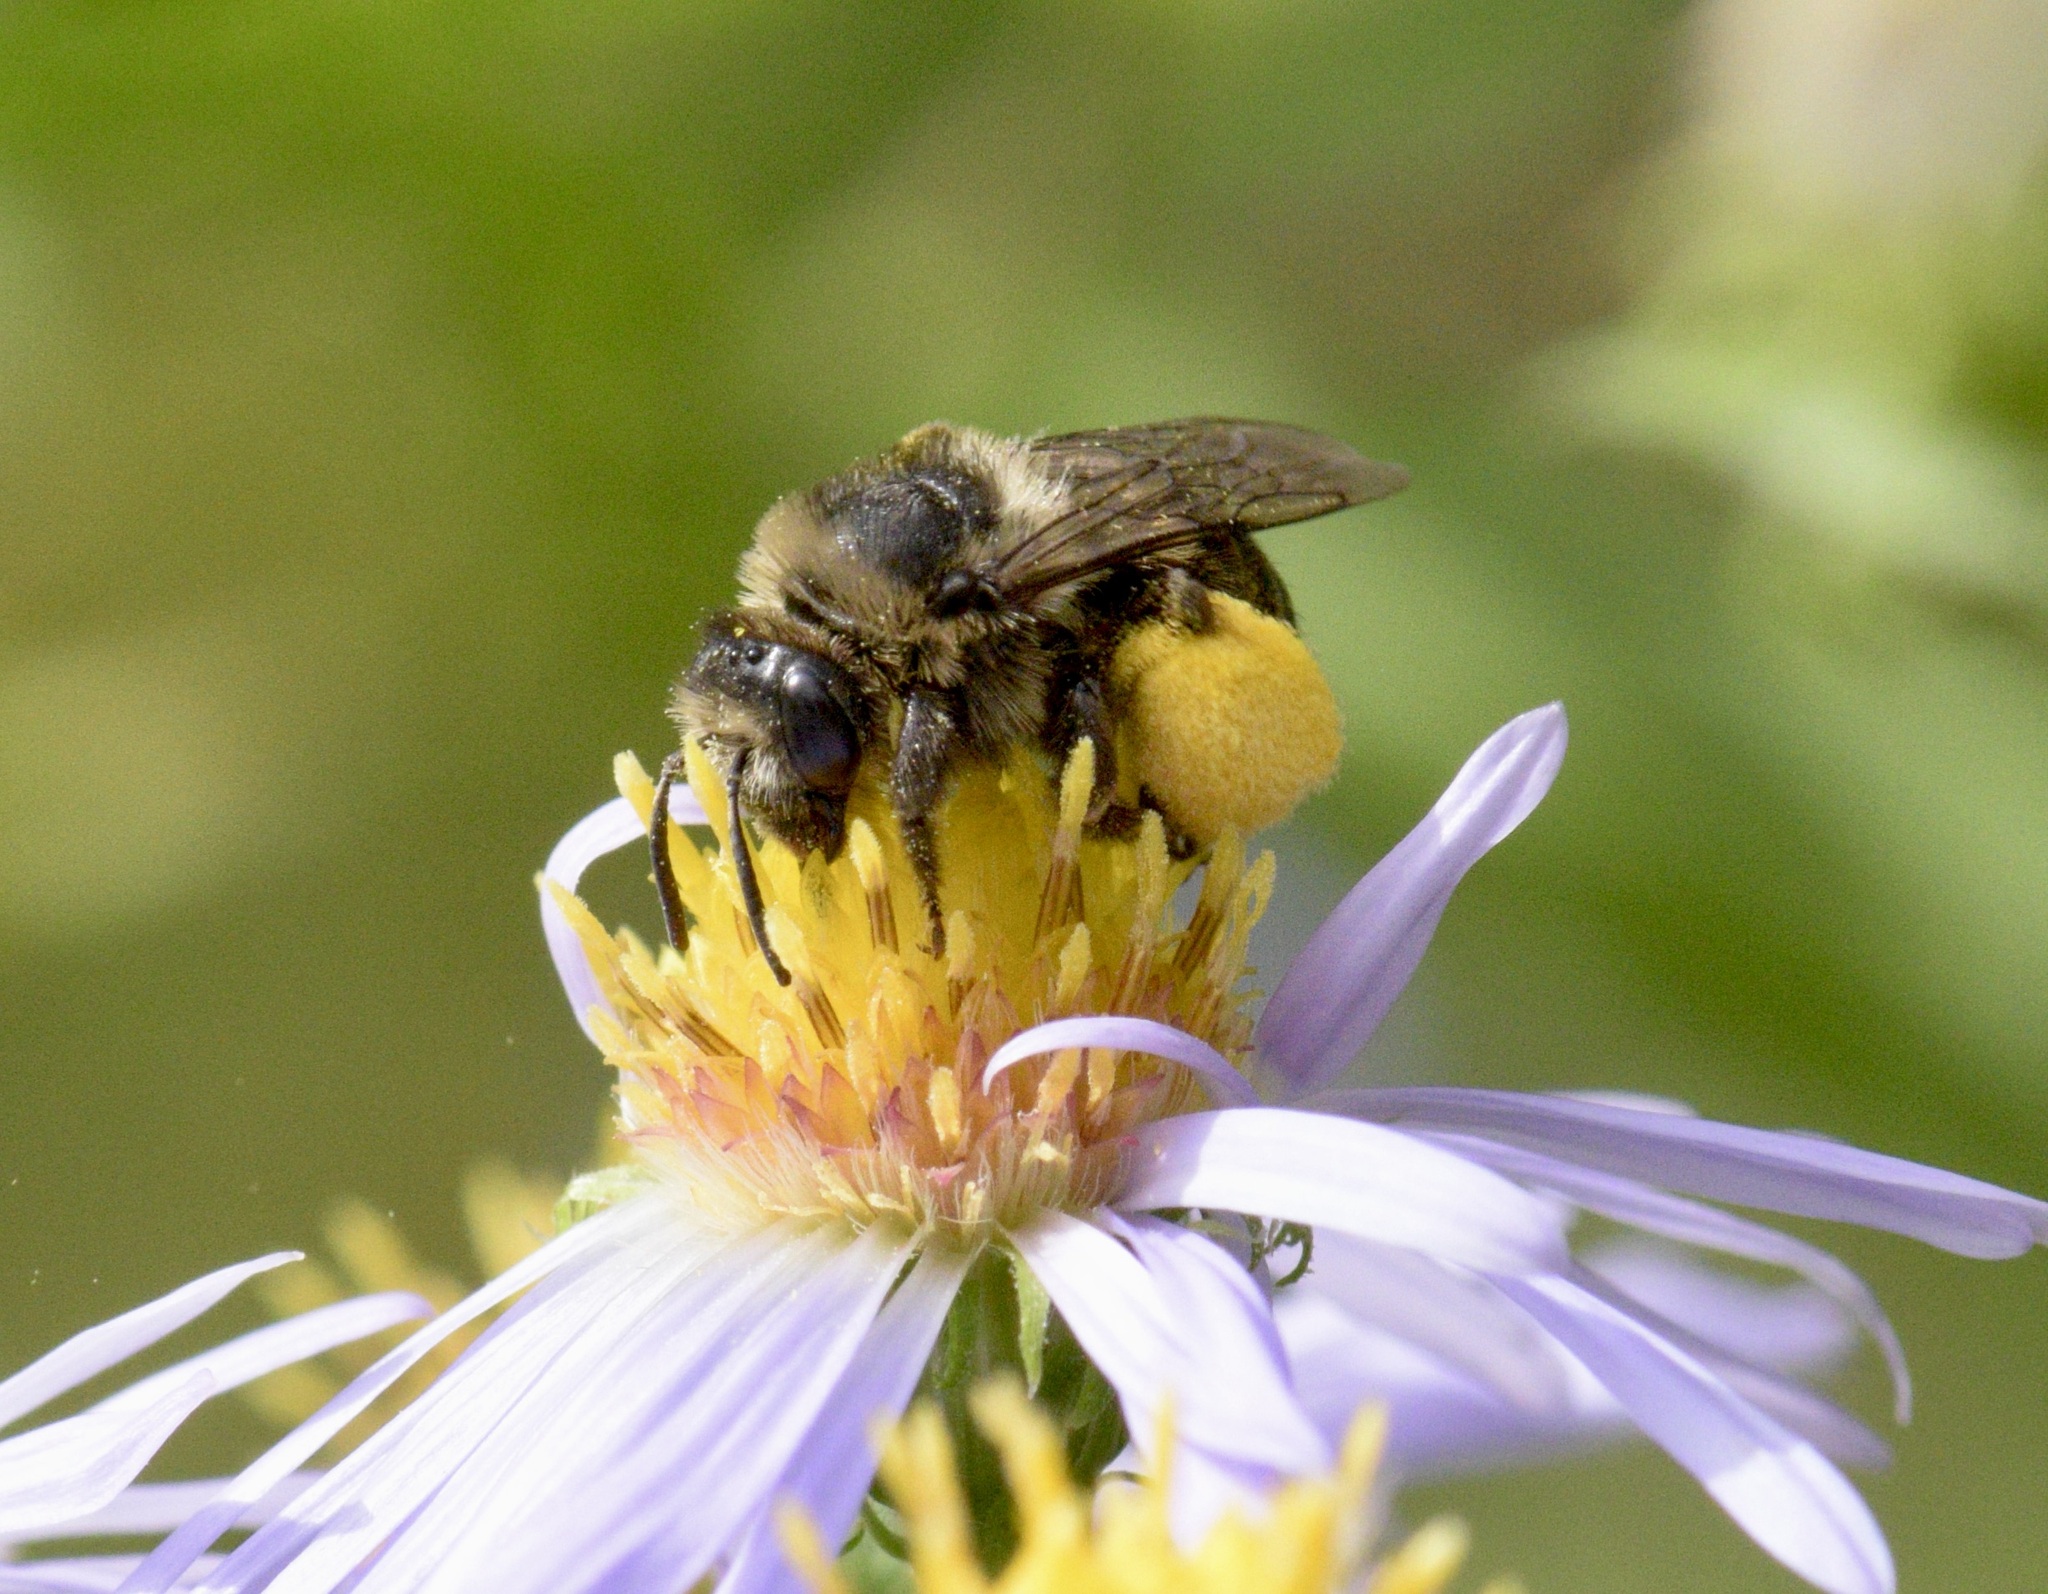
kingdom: Animalia
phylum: Arthropoda
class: Insecta
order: Hymenoptera
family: Apidae
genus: Melissodes
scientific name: Melissodes druriellus
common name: Drury's long-horned bee
